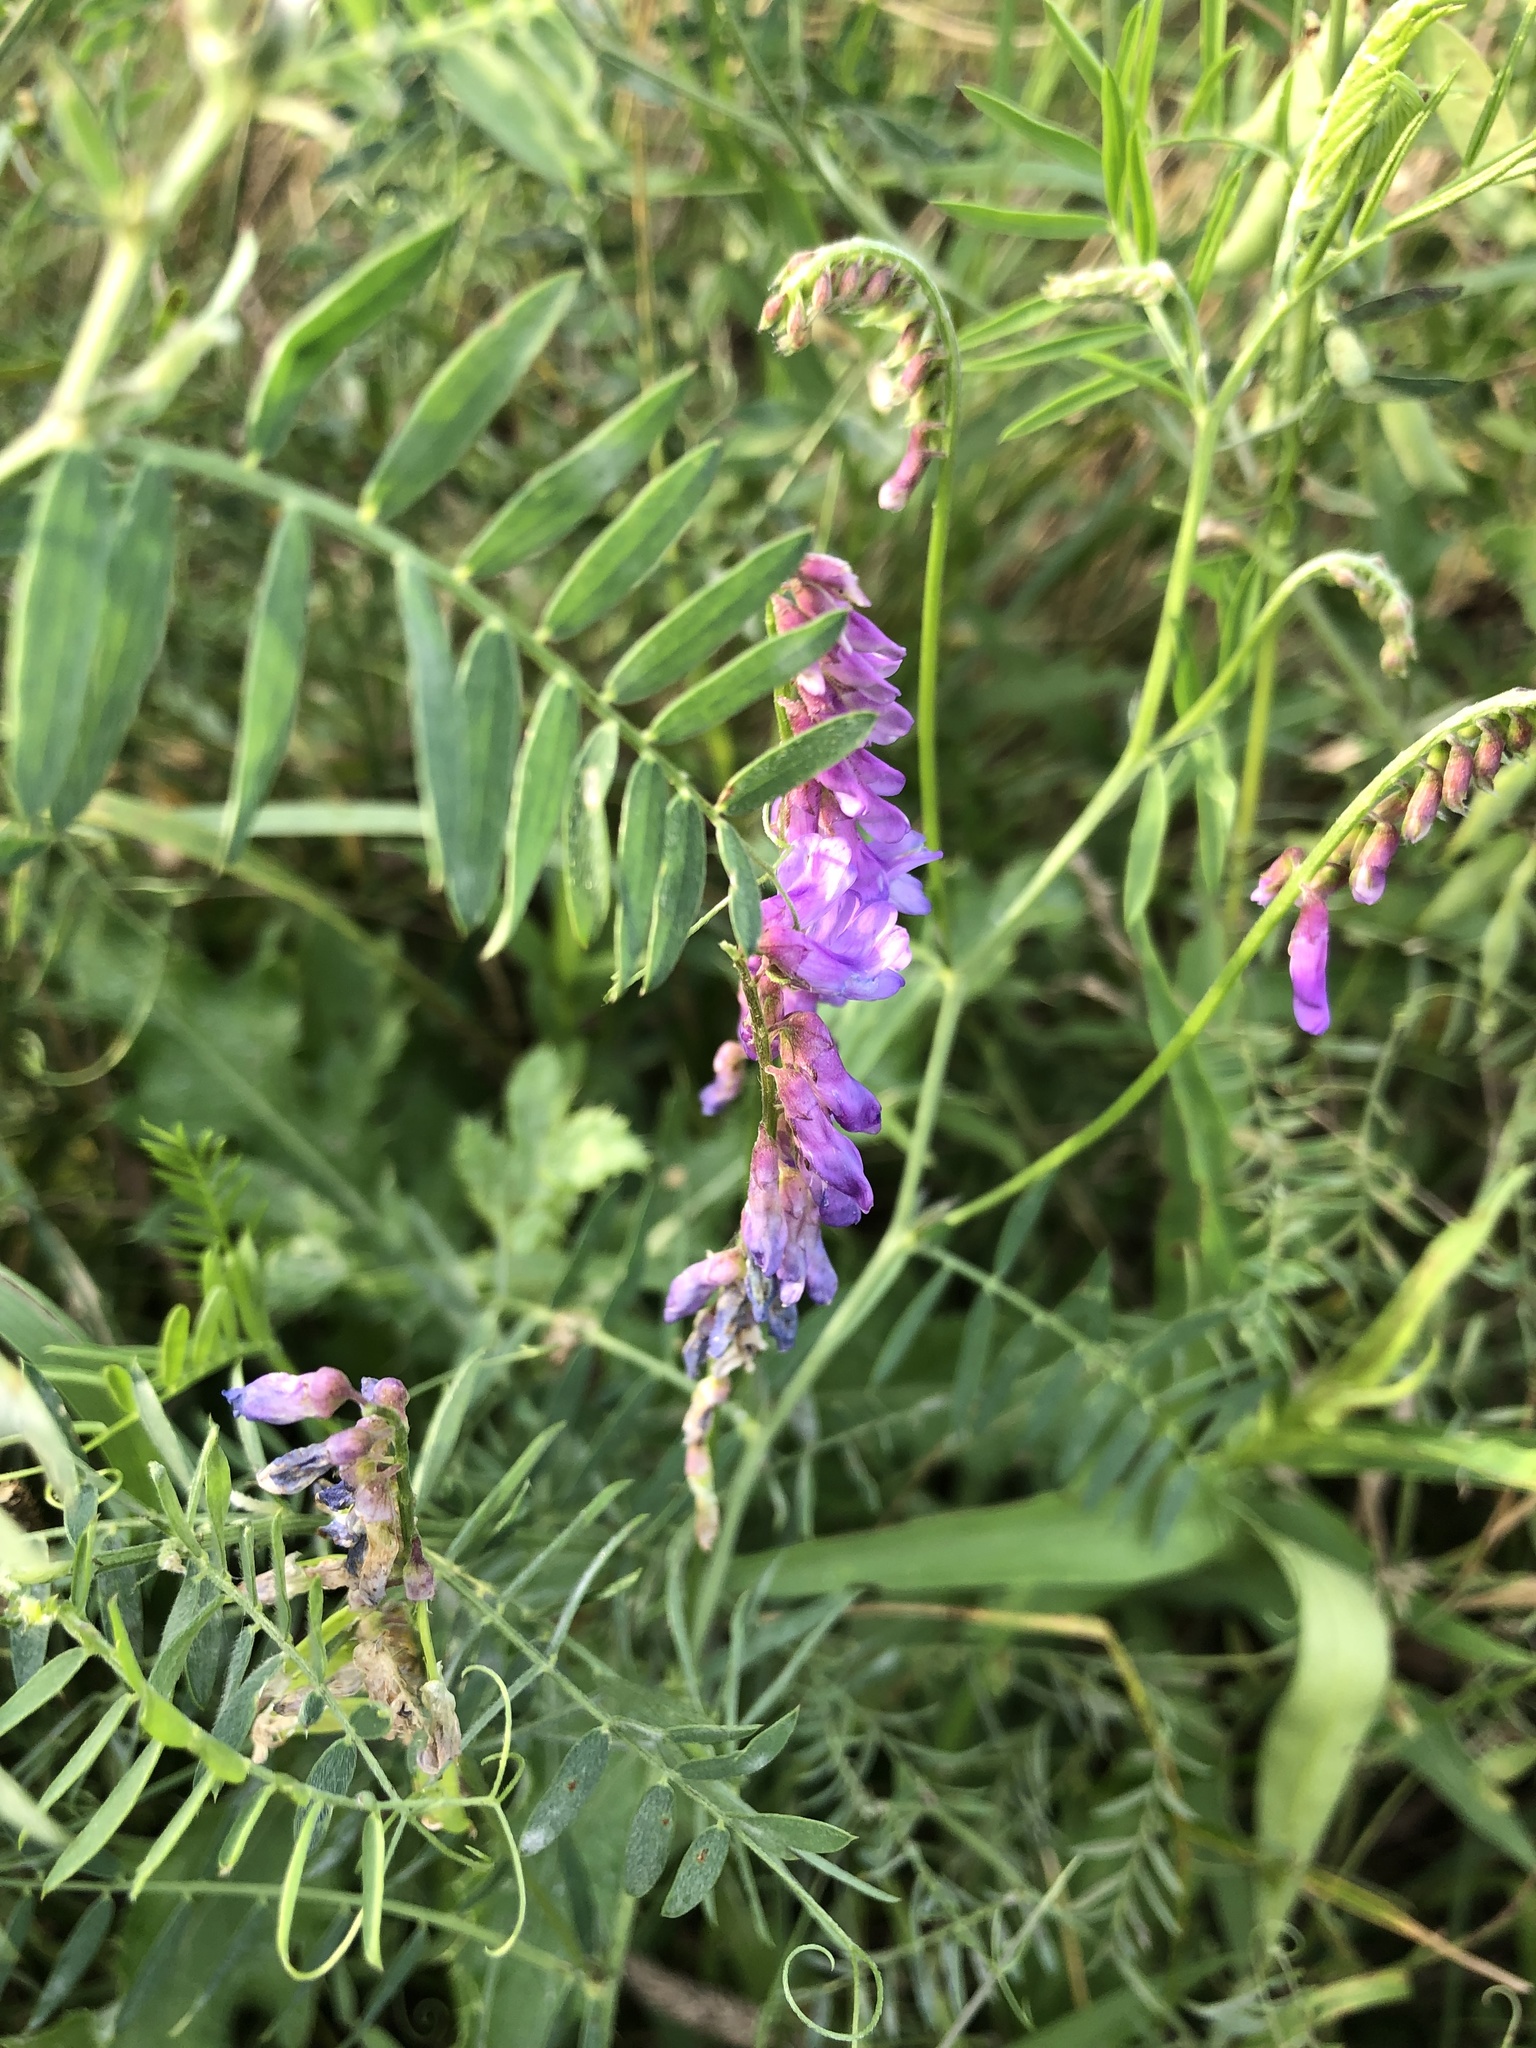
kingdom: Plantae
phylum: Tracheophyta
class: Magnoliopsida
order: Fabales
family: Fabaceae
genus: Vicia
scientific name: Vicia cracca
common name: Bird vetch
